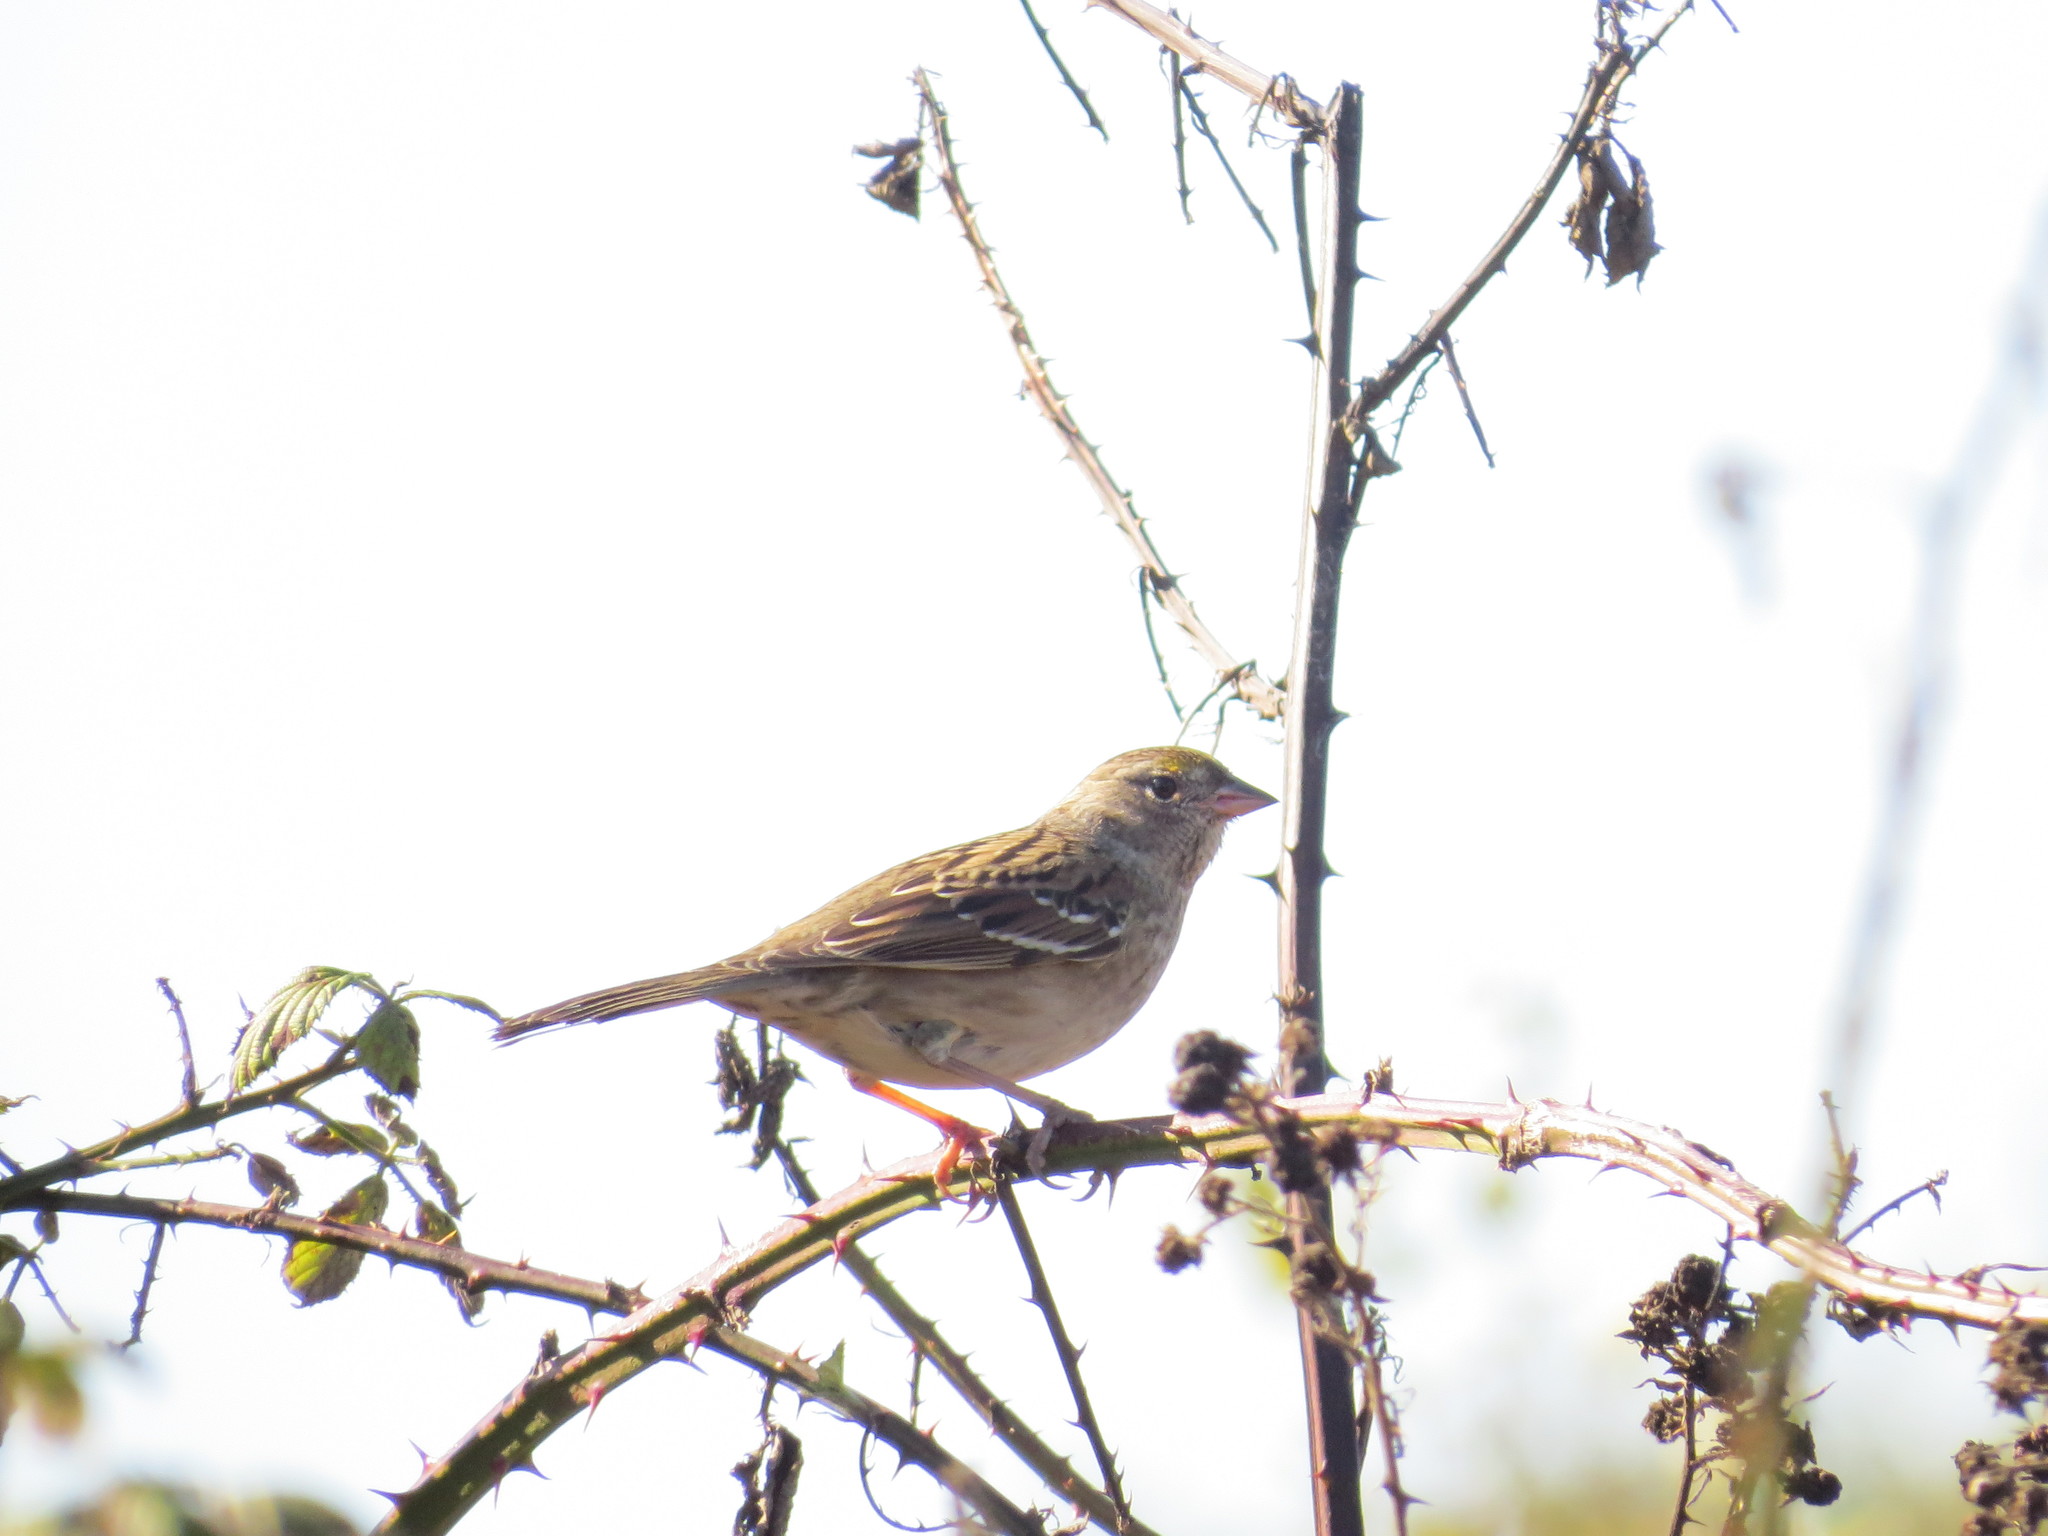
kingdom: Animalia
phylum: Chordata
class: Aves
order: Passeriformes
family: Passerellidae
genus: Zonotrichia
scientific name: Zonotrichia atricapilla
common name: Golden-crowned sparrow
